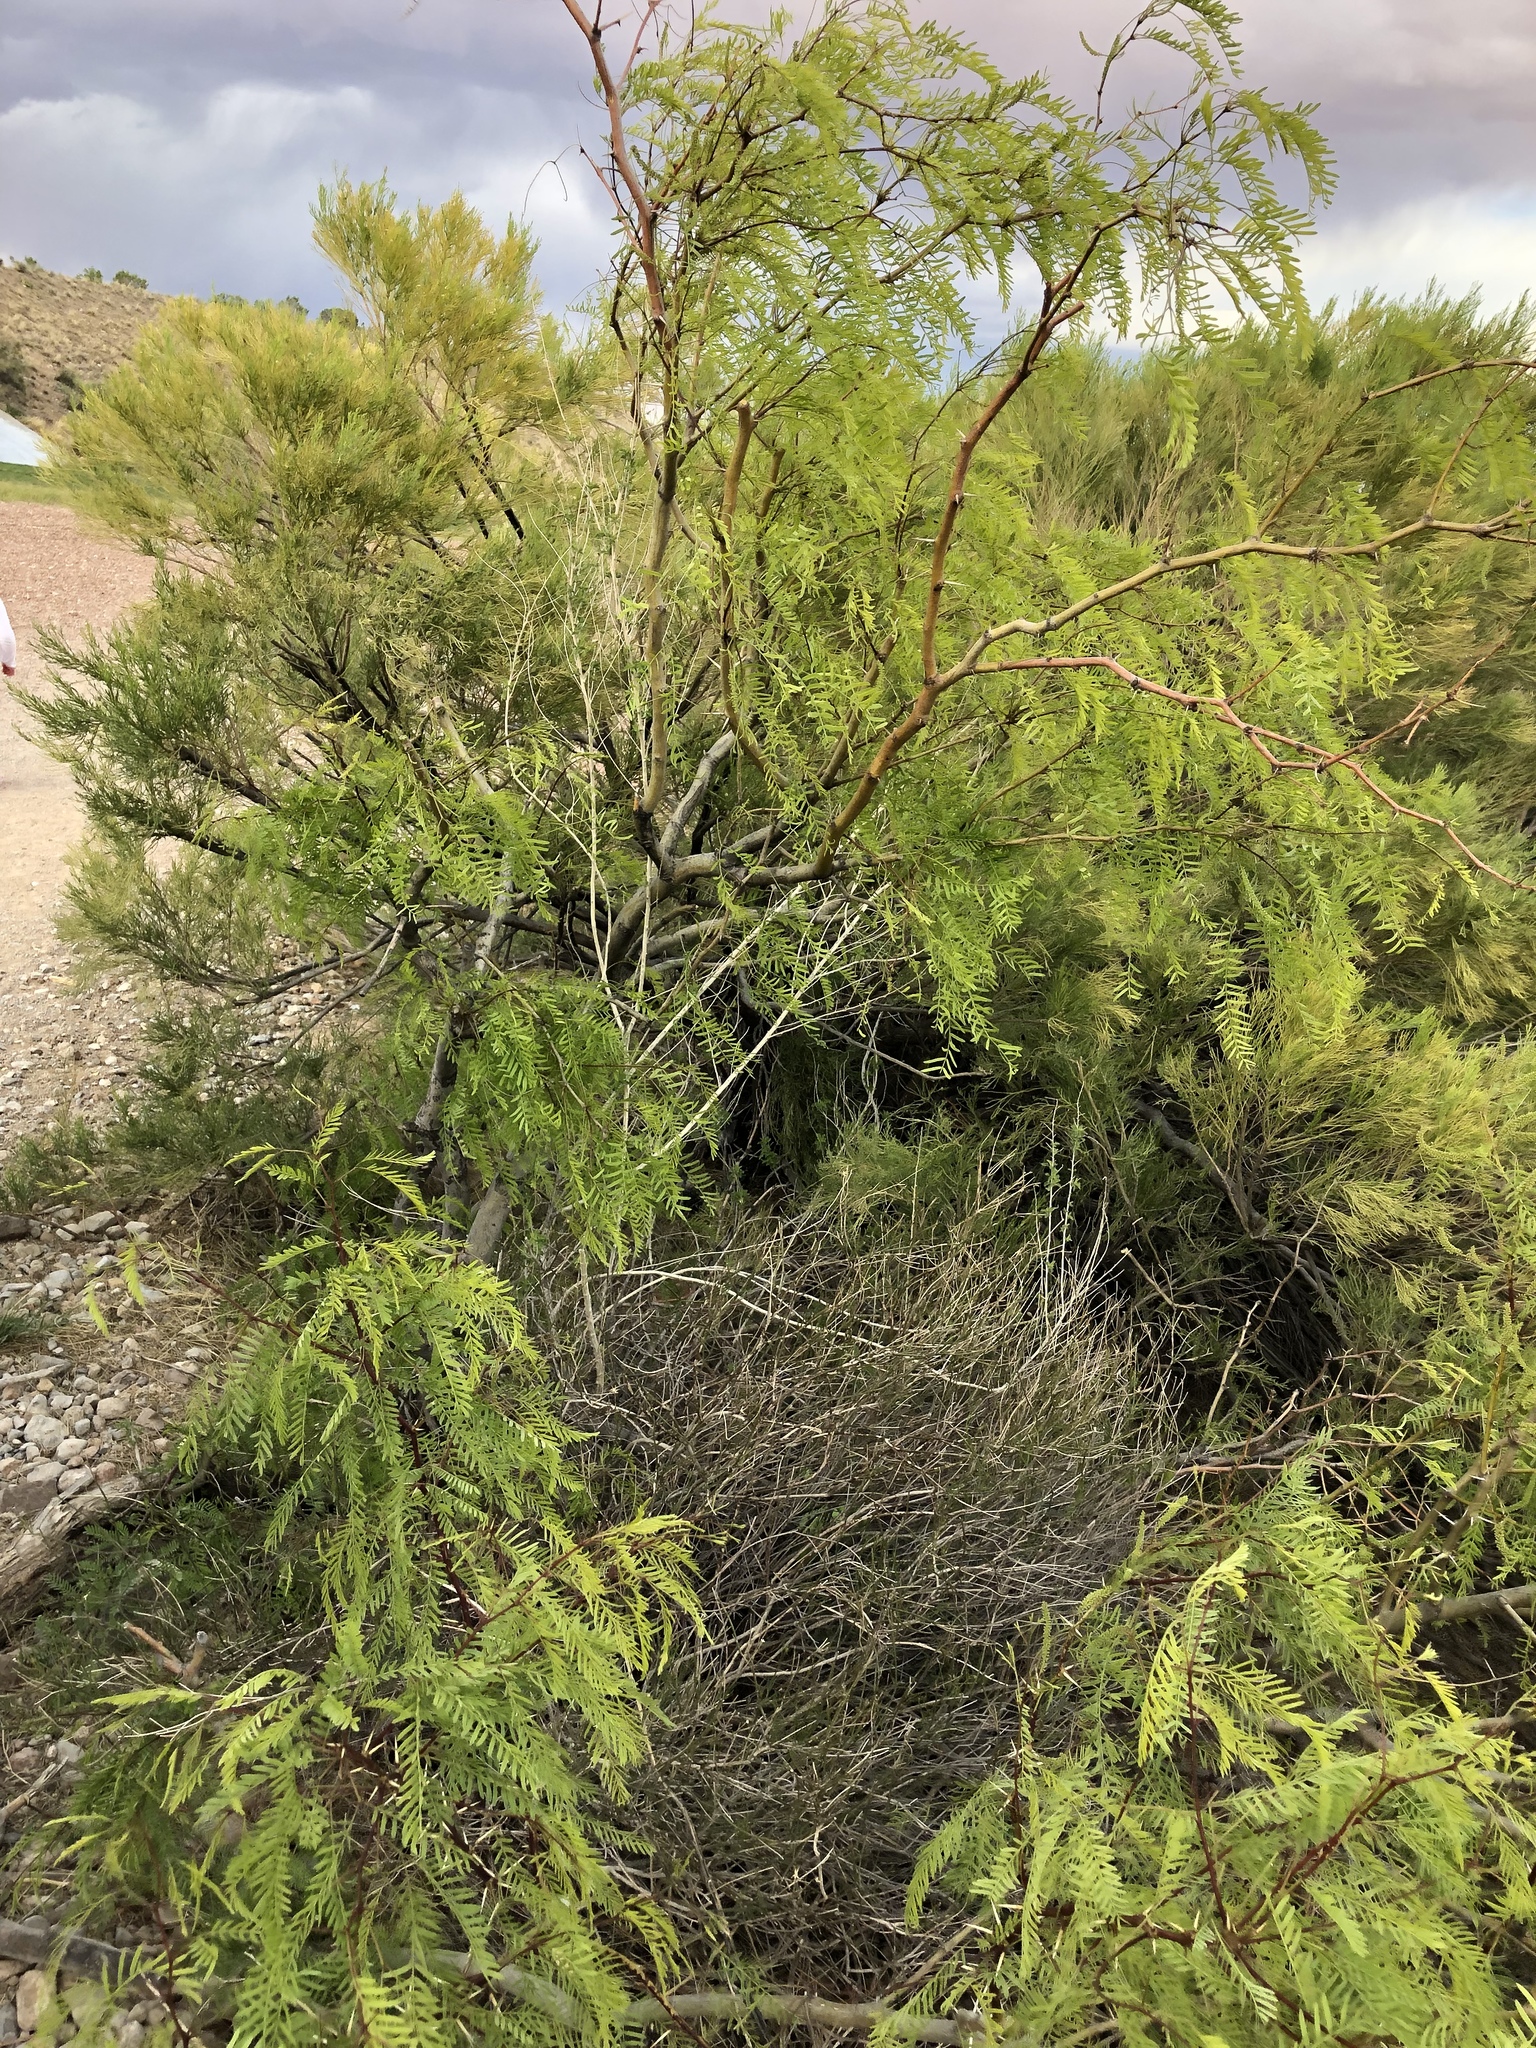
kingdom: Plantae
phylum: Tracheophyta
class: Magnoliopsida
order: Fabales
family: Fabaceae
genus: Prosopis
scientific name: Prosopis glandulosa
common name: Honey mesquite
